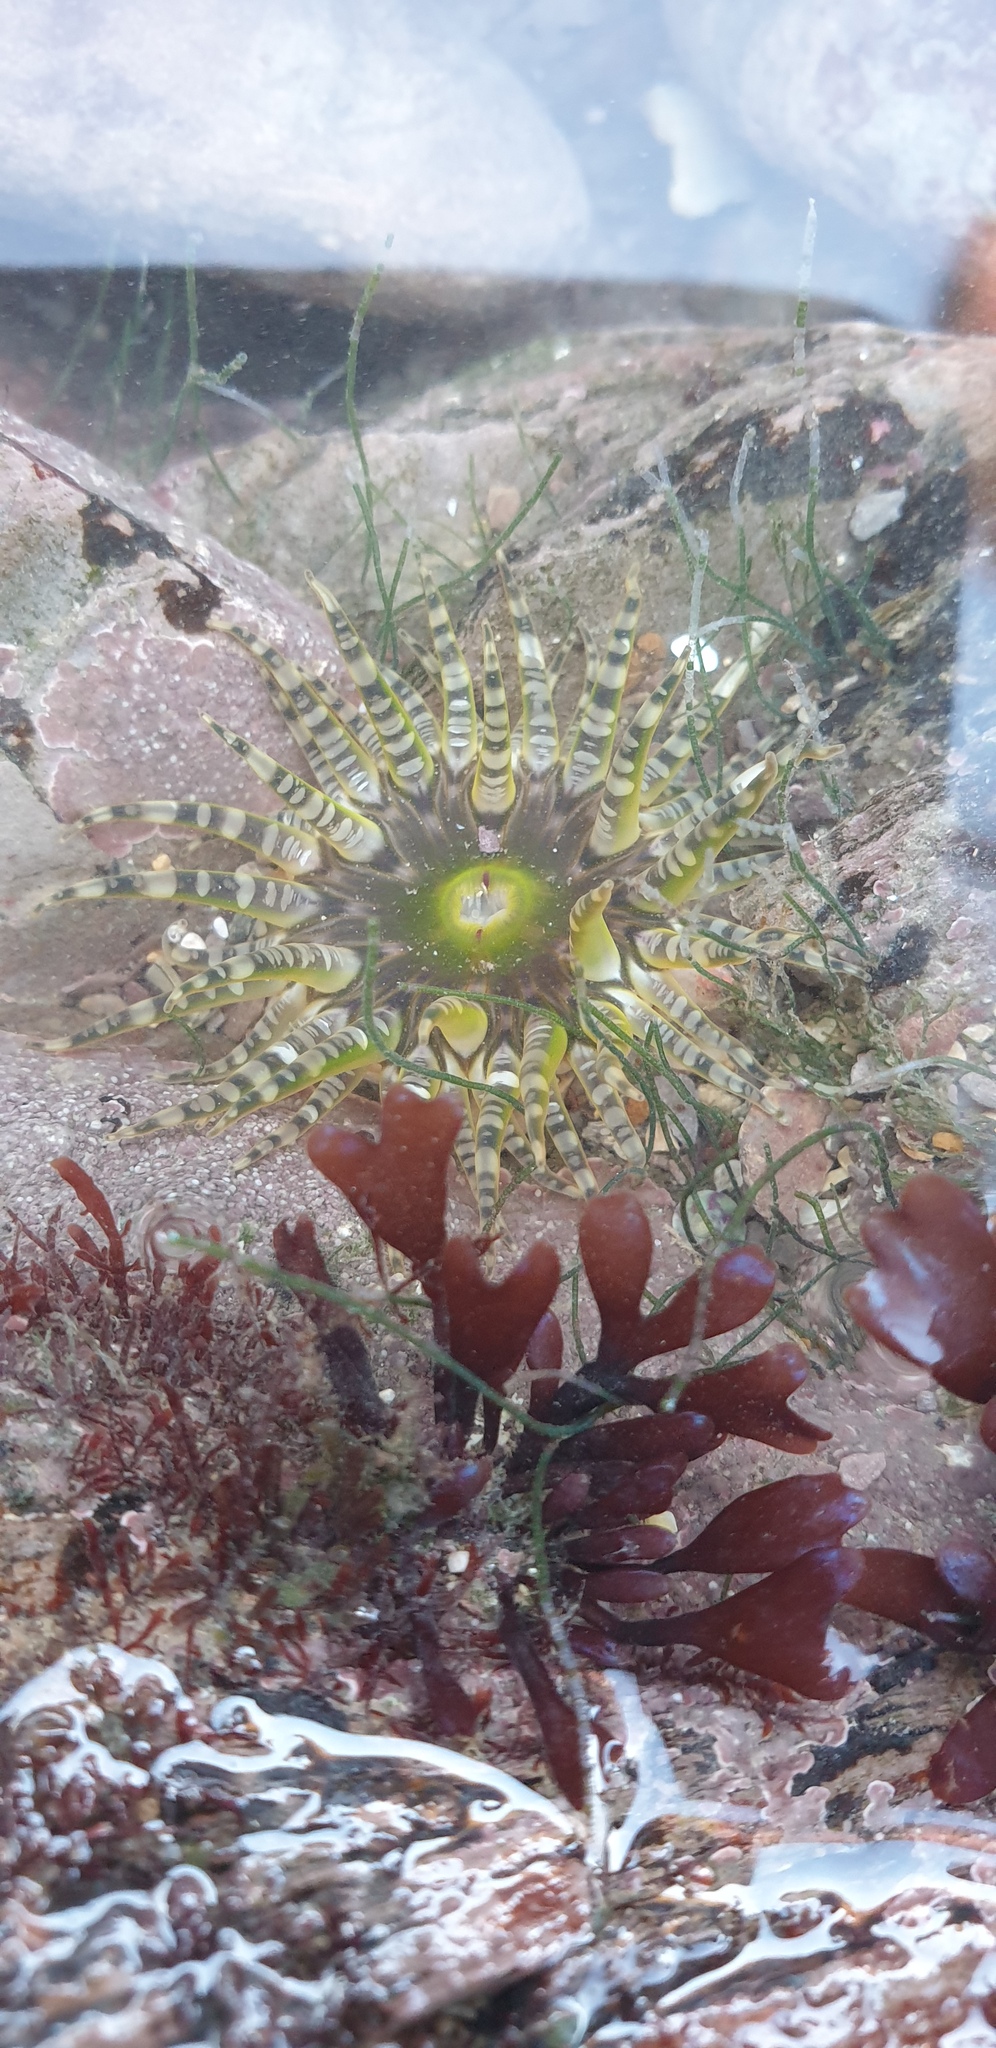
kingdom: Animalia
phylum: Cnidaria
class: Anthozoa
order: Actiniaria
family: Actiniidae
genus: Bunodactis
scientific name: Bunodactis verrucosa
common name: Gem anemone
